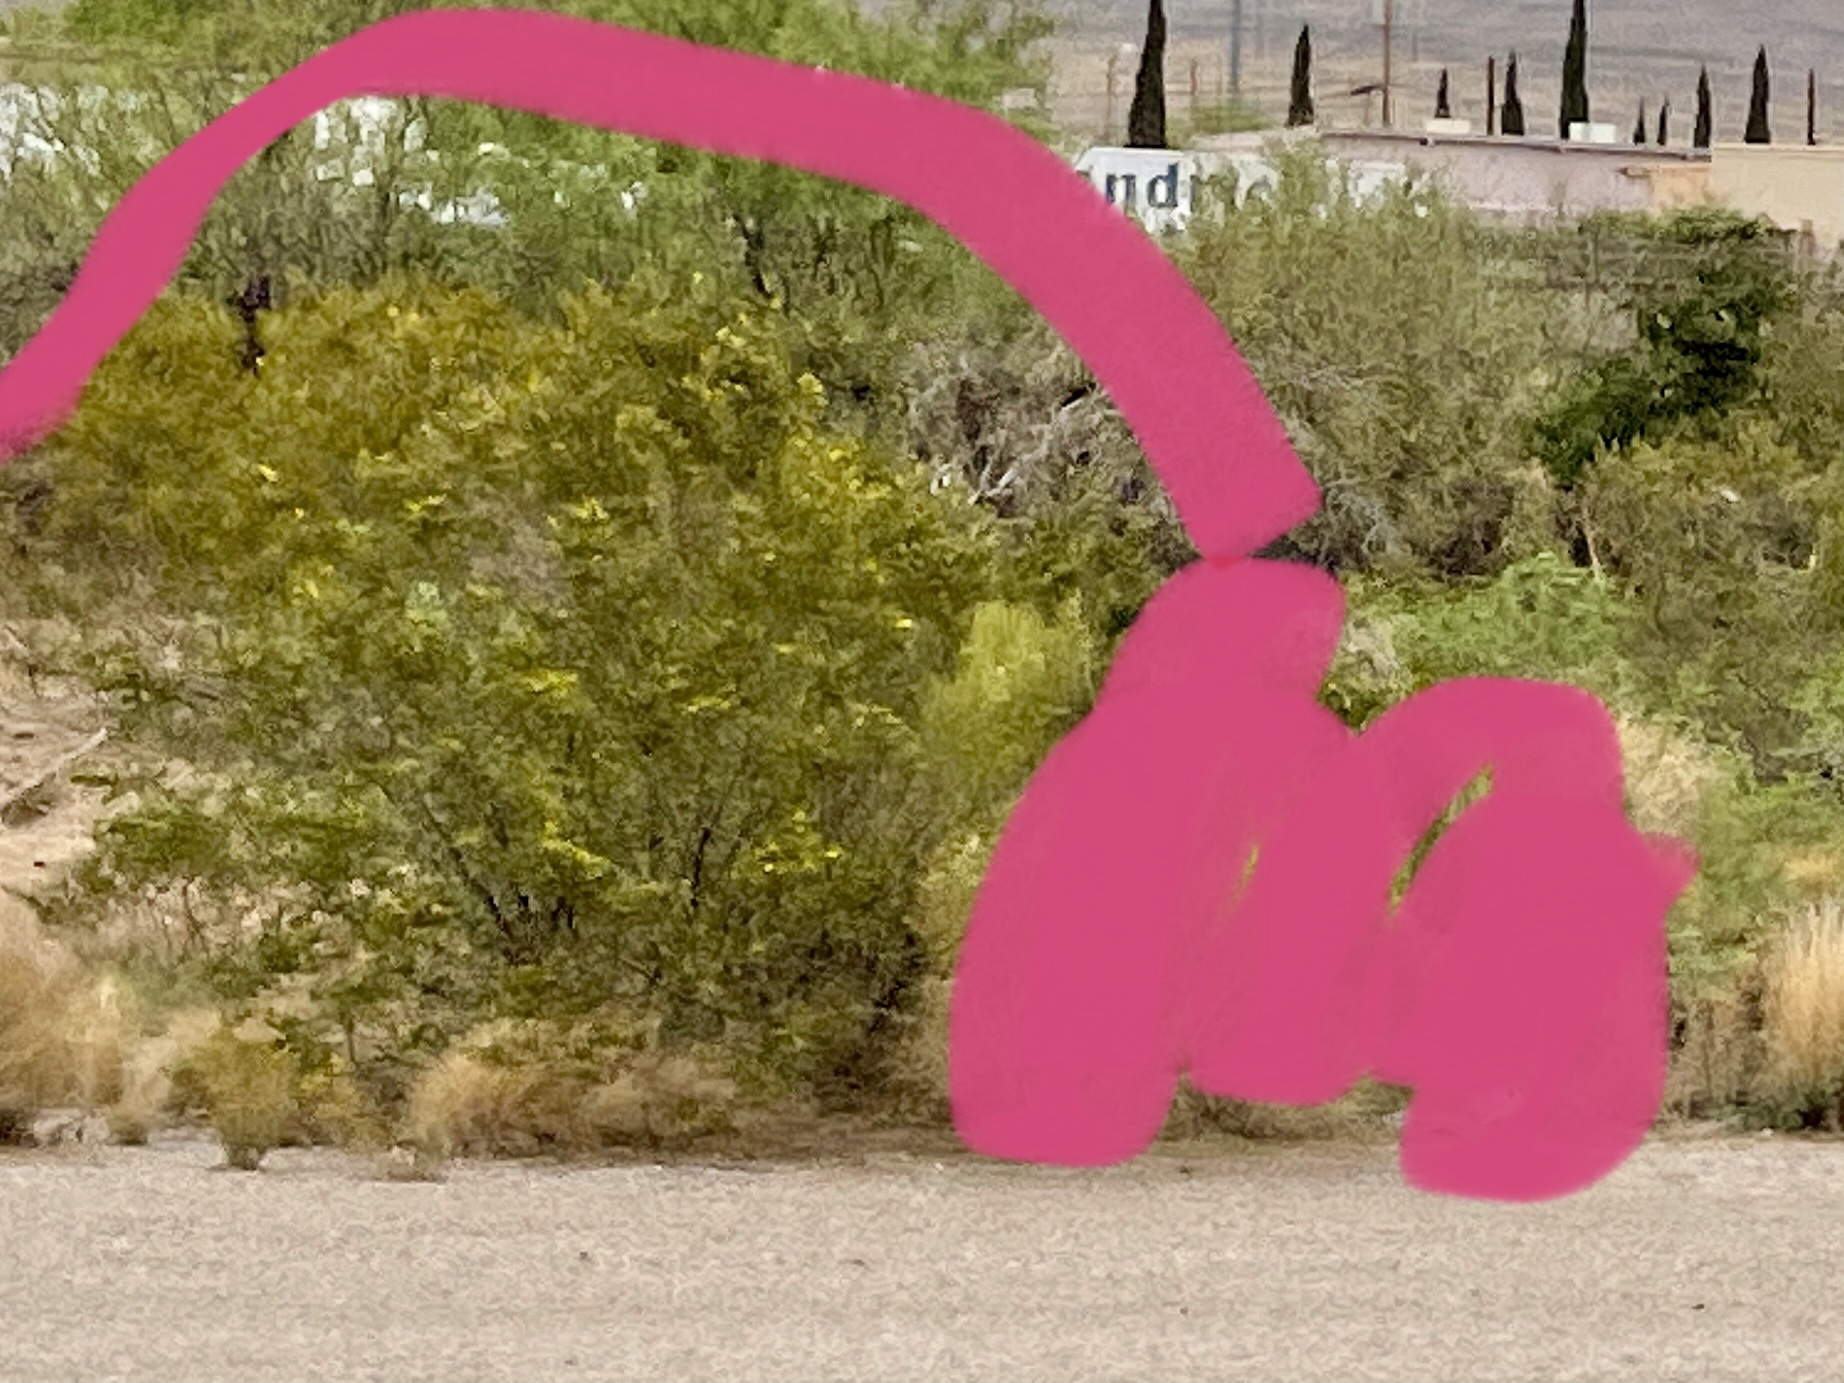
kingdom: Plantae
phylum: Tracheophyta
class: Magnoliopsida
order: Zygophyllales
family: Zygophyllaceae
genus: Larrea
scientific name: Larrea tridentata
